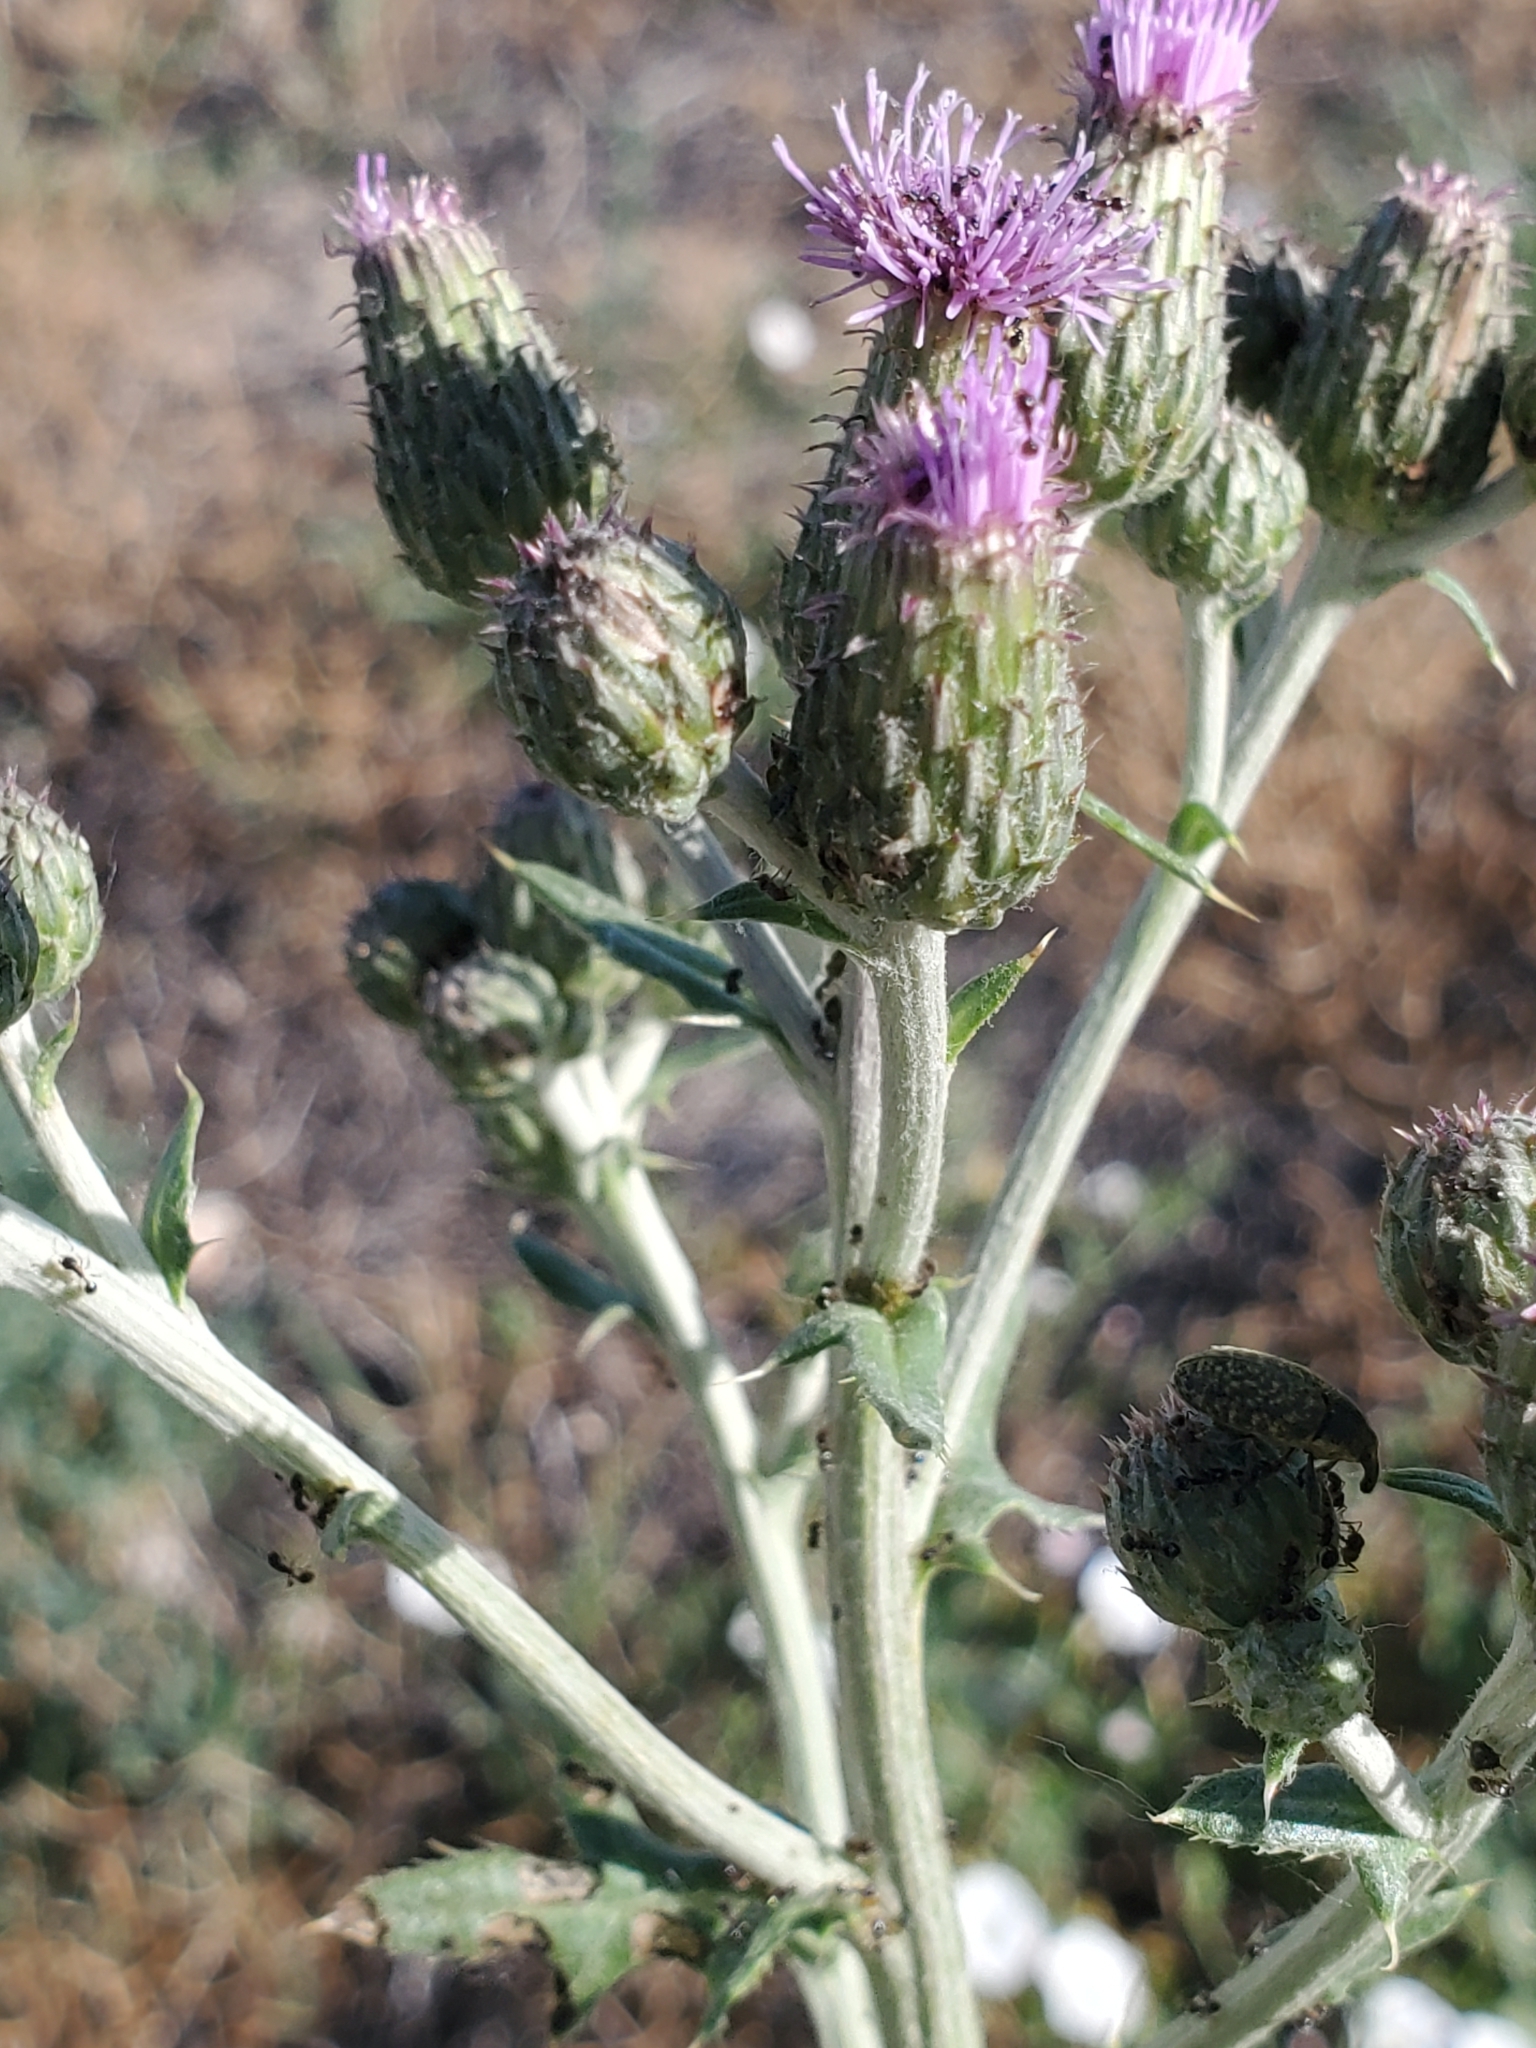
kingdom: Plantae
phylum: Tracheophyta
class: Magnoliopsida
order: Asterales
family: Asteraceae
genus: Cirsium
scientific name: Cirsium arvense
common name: Creeping thistle
